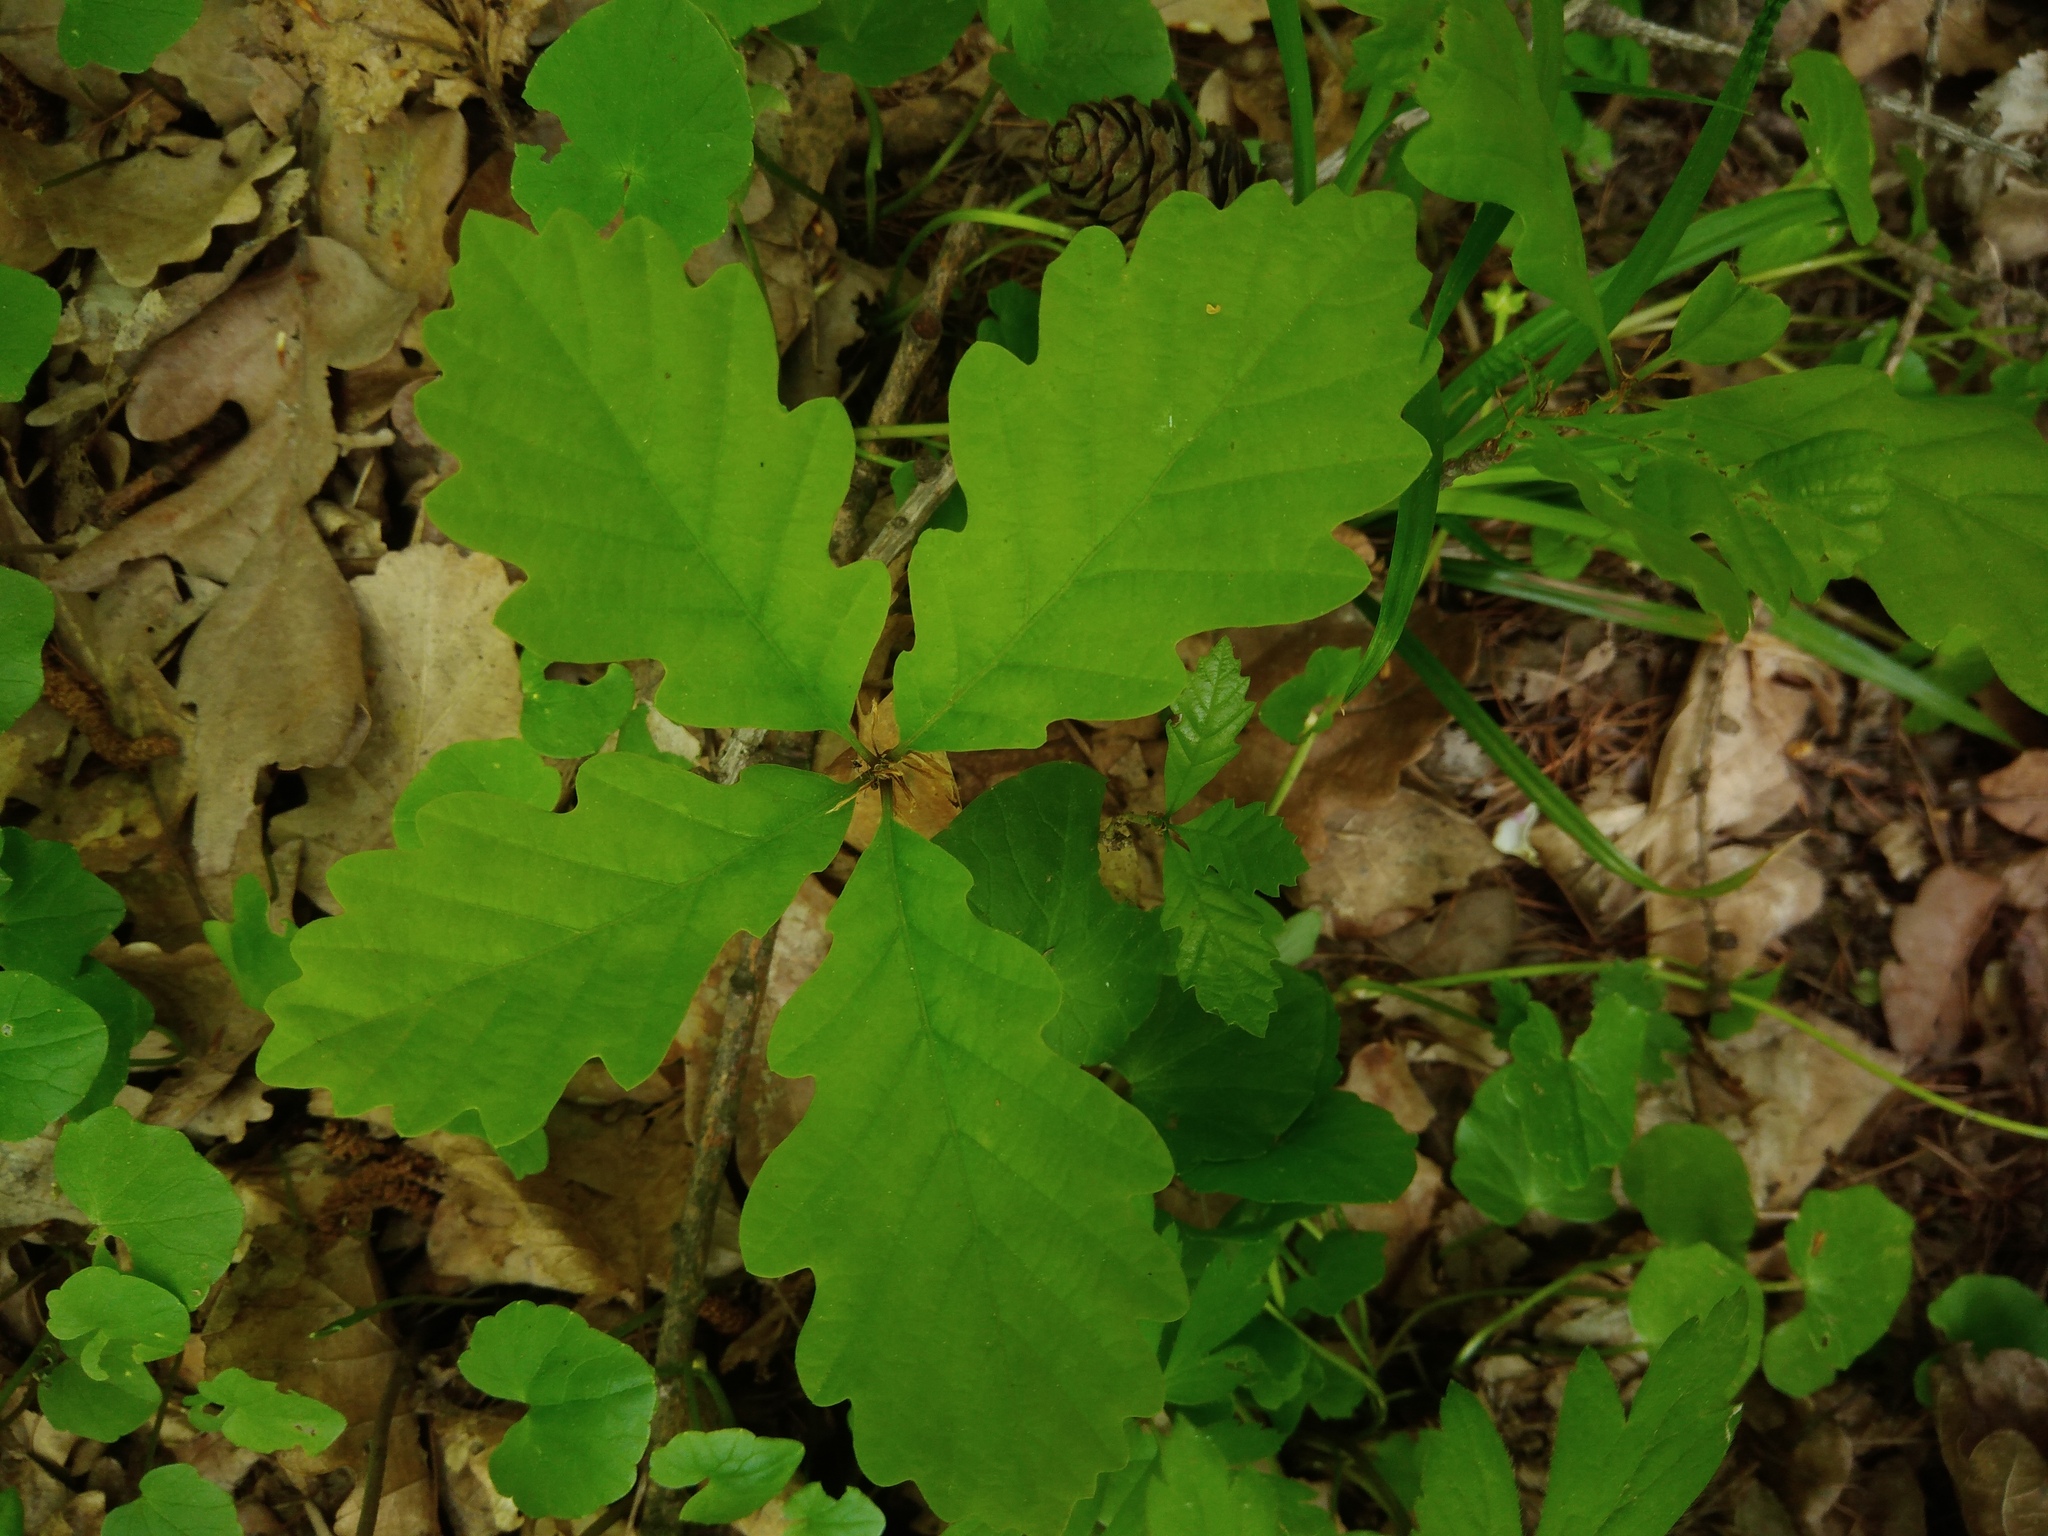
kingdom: Plantae
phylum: Tracheophyta
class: Magnoliopsida
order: Fagales
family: Fagaceae
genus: Quercus
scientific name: Quercus petraea
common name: Sessile oak
